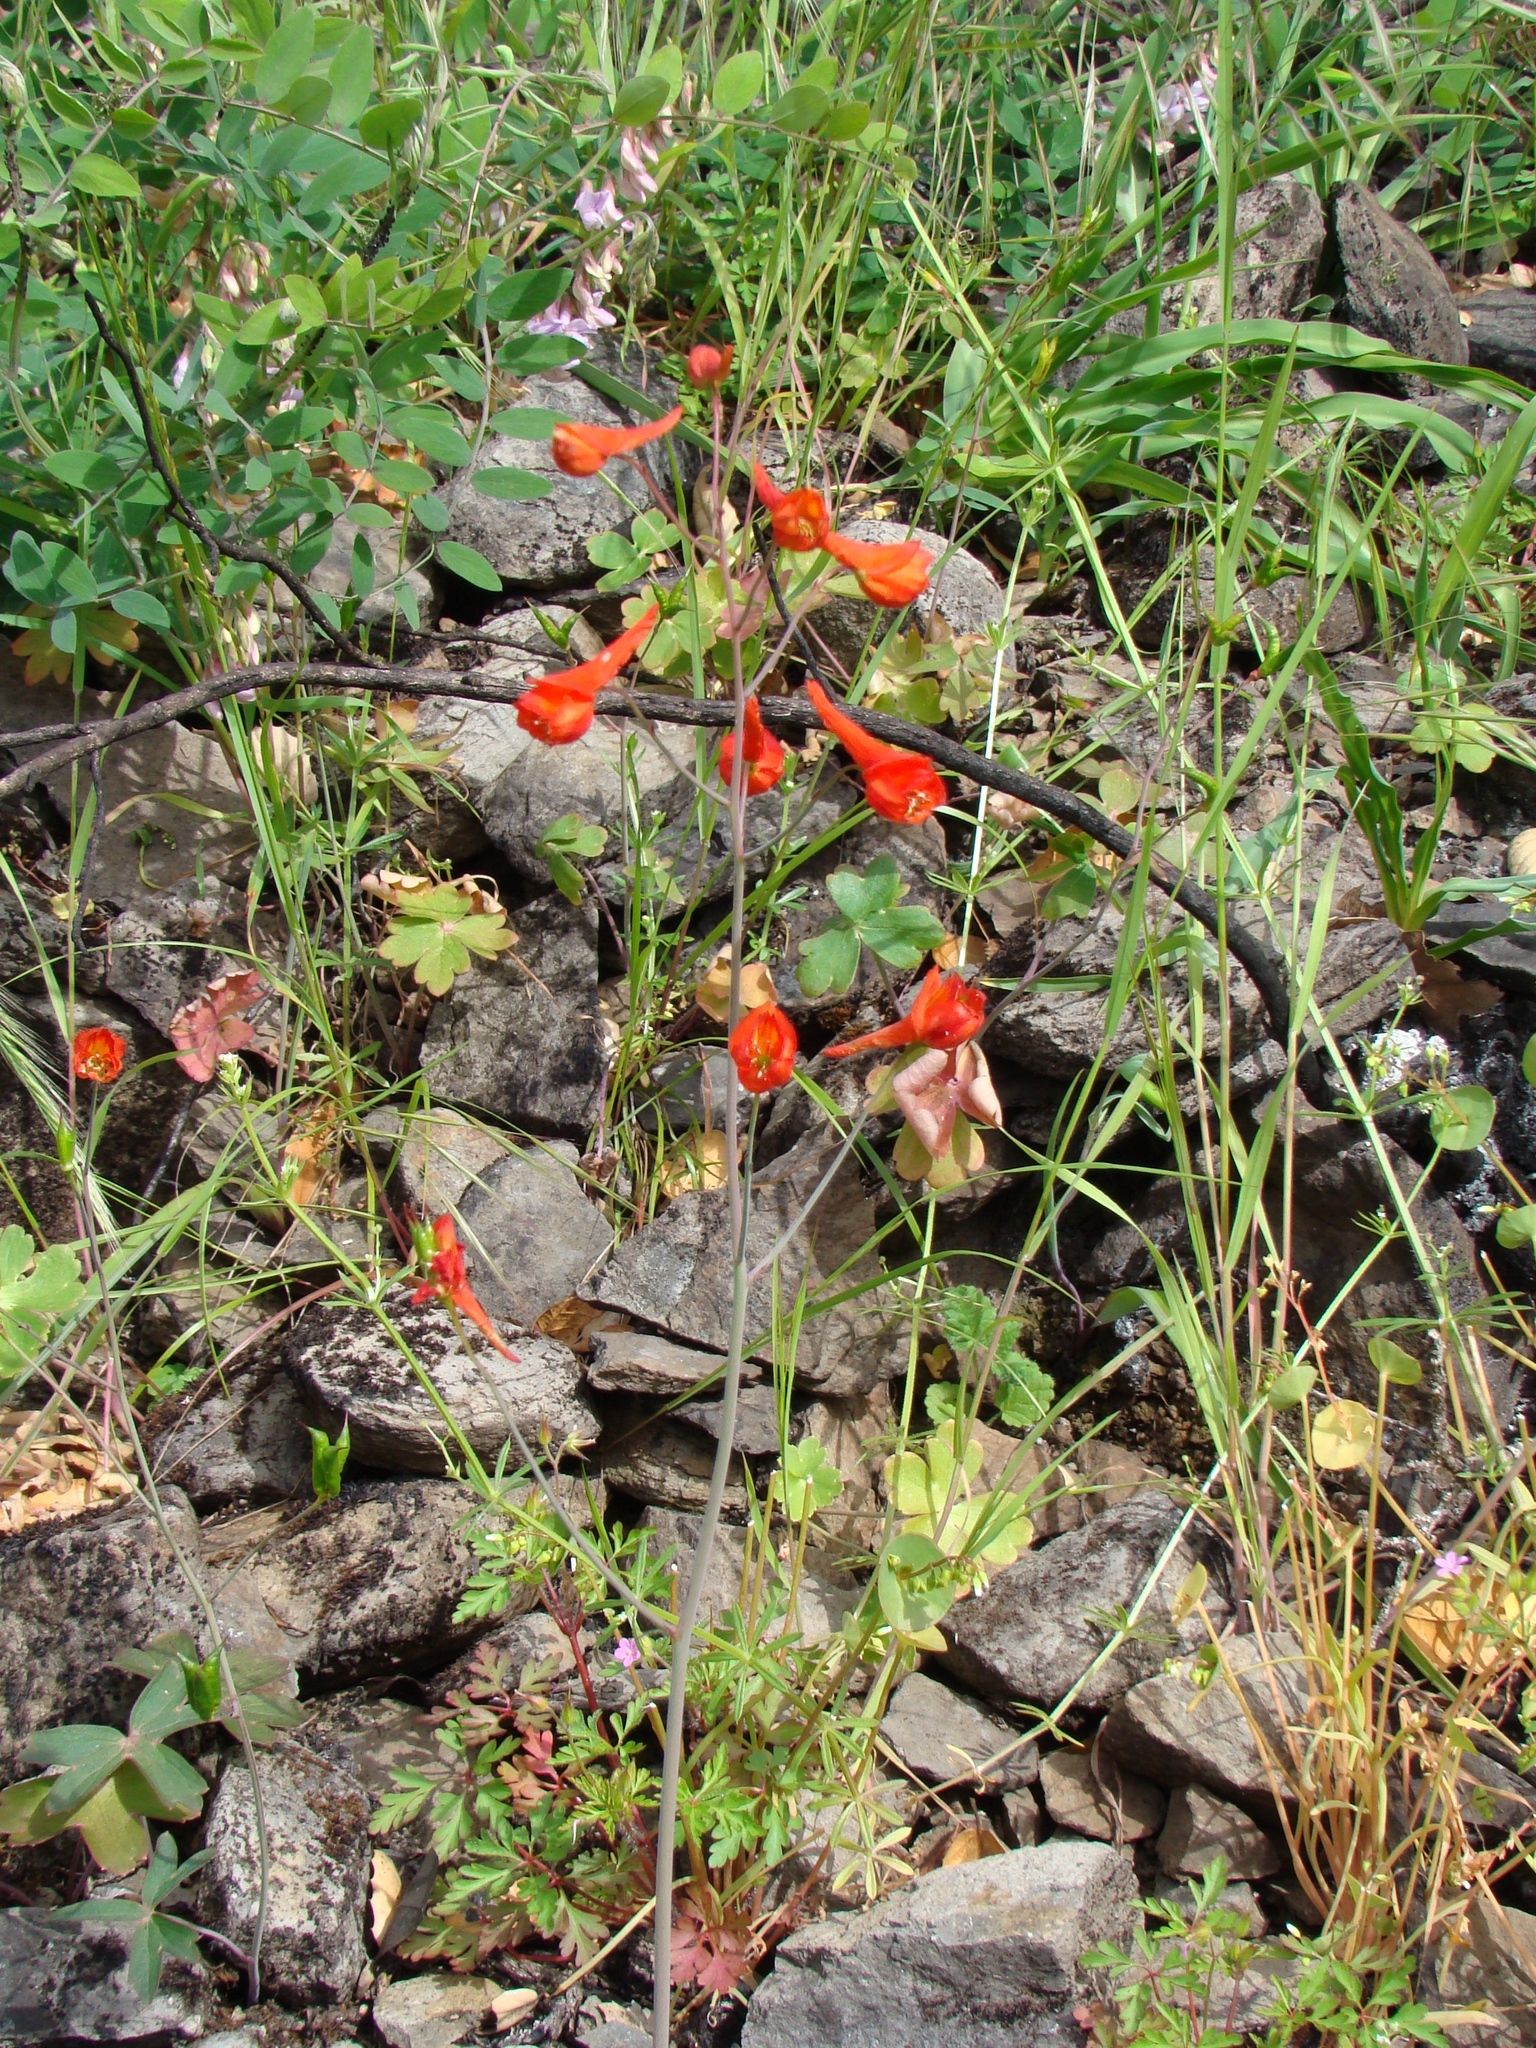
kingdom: Plantae
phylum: Tracheophyta
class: Magnoliopsida
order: Ranunculales
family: Ranunculaceae
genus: Delphinium
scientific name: Delphinium nudicaule
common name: Red larkspur
